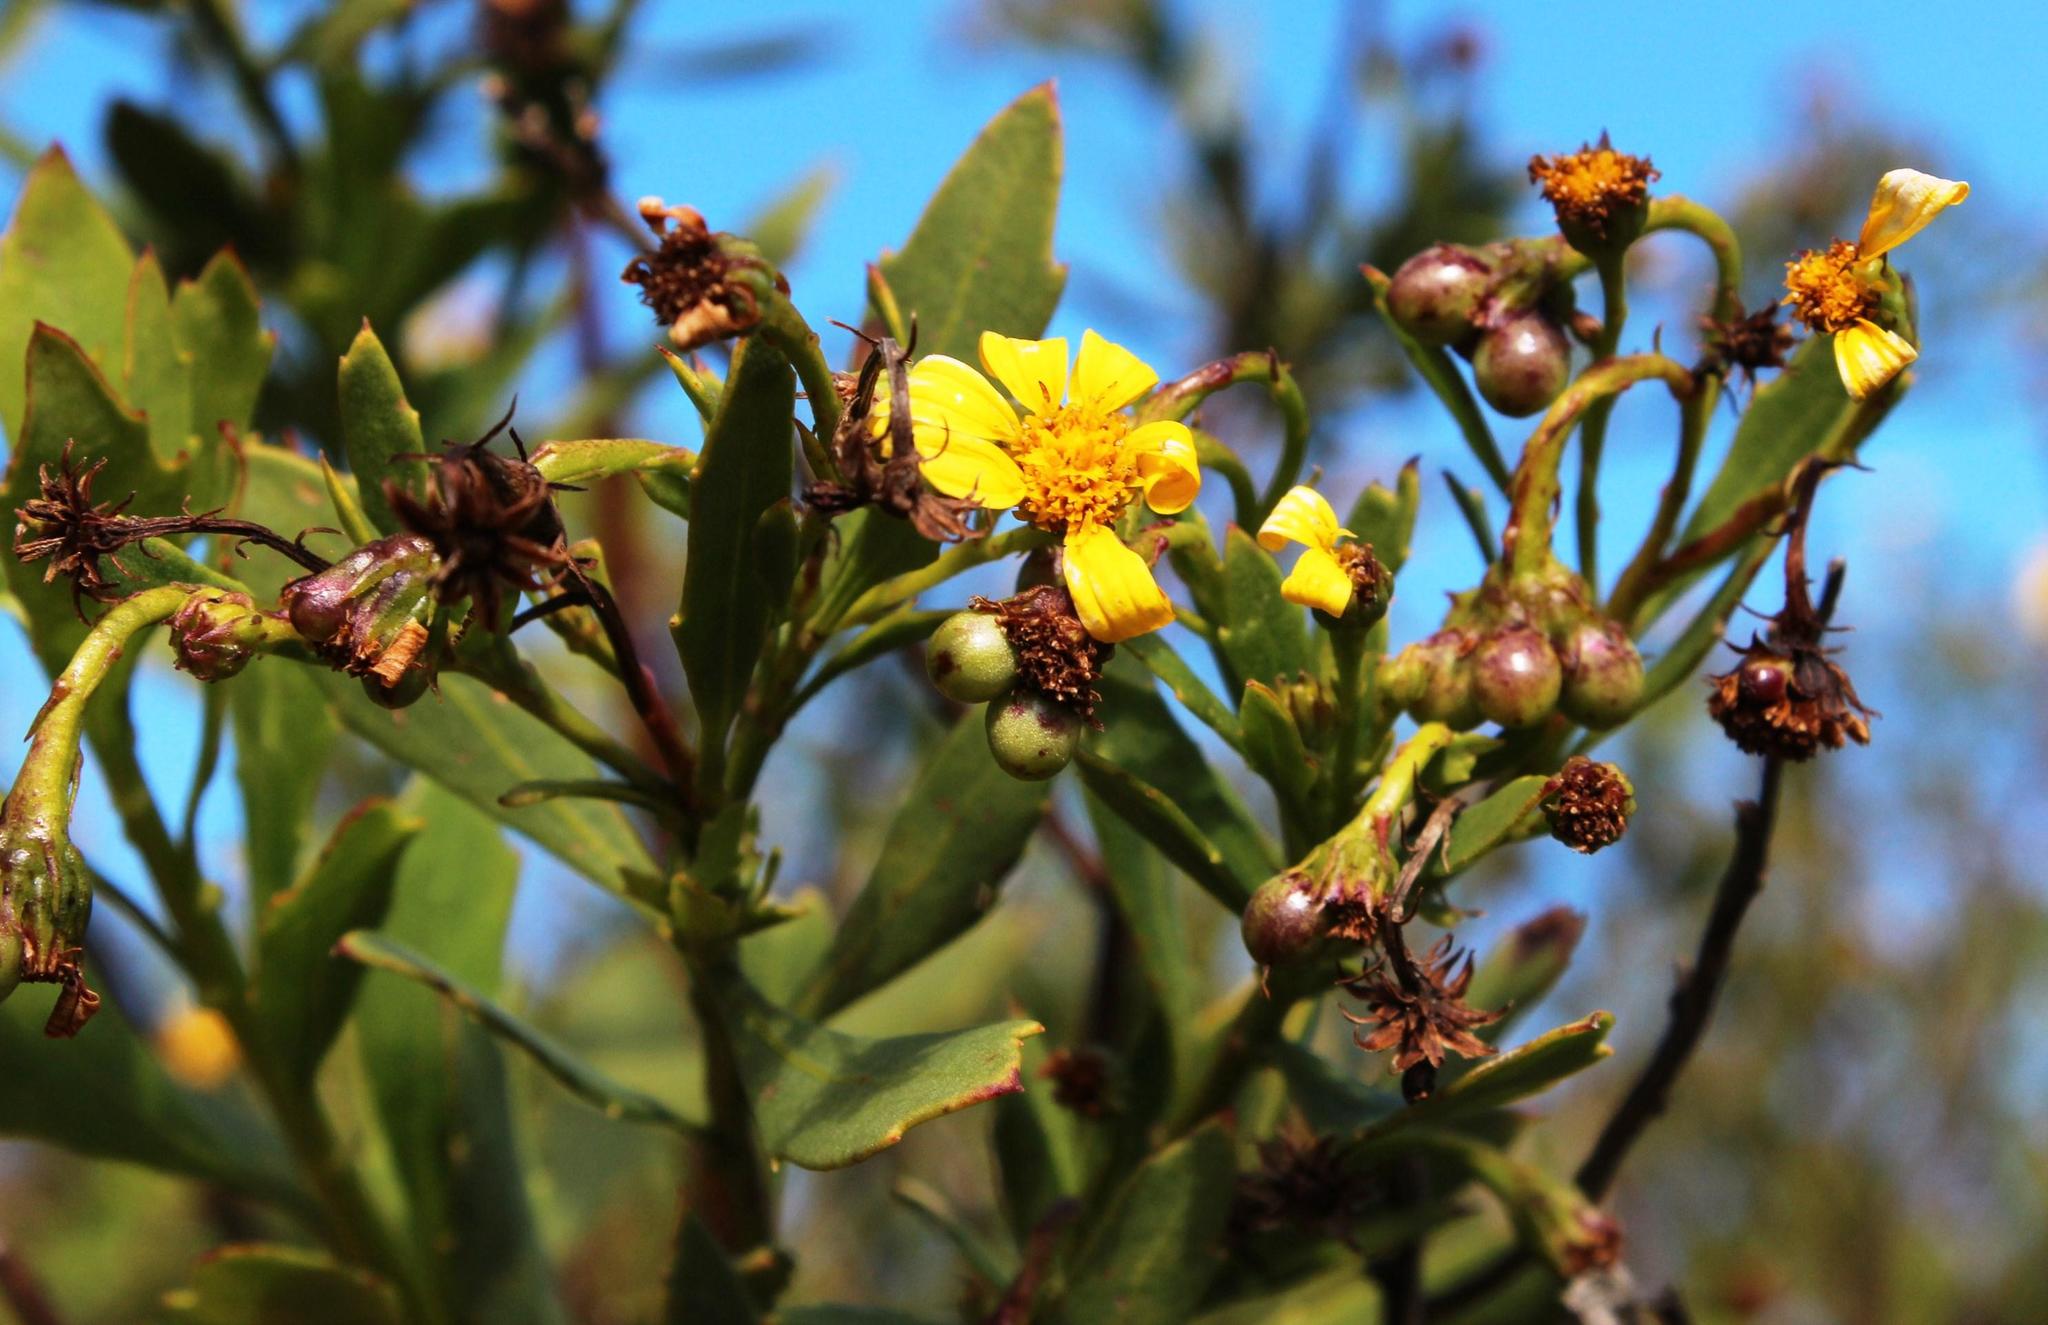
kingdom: Plantae
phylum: Tracheophyta
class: Magnoliopsida
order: Asterales
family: Asteraceae
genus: Osteospermum
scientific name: Osteospermum moniliferum
